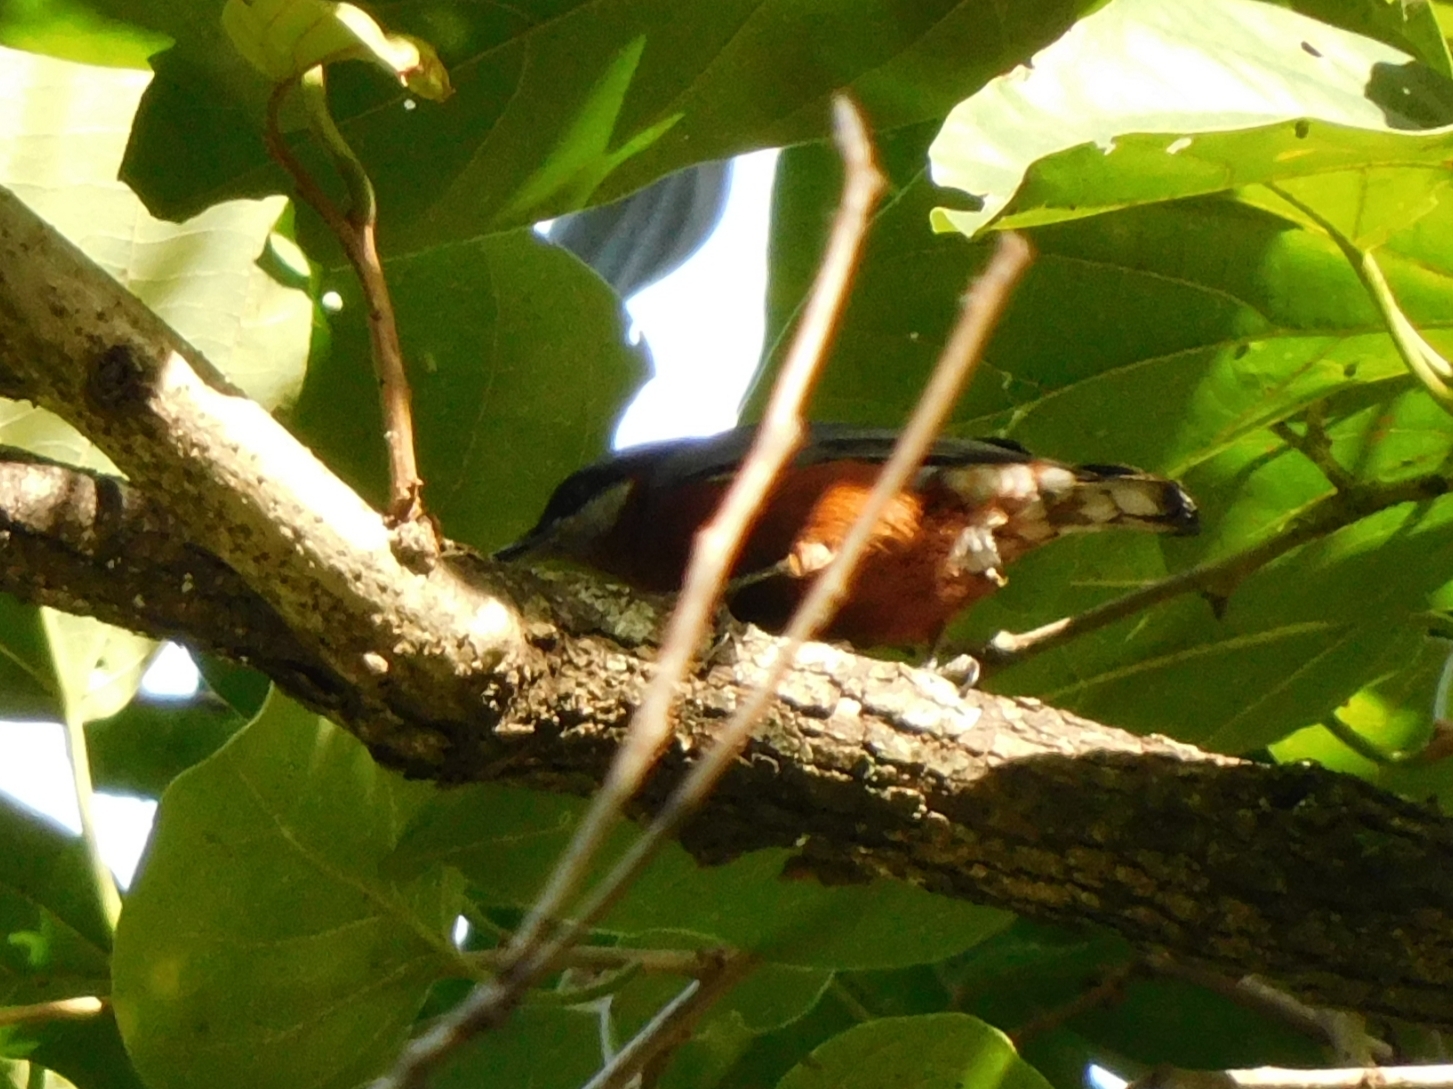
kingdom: Animalia
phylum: Chordata
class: Aves
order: Passeriformes
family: Sittidae
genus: Sitta
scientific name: Sitta cinnamoventris
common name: Chestnut-bellied nuthatch
